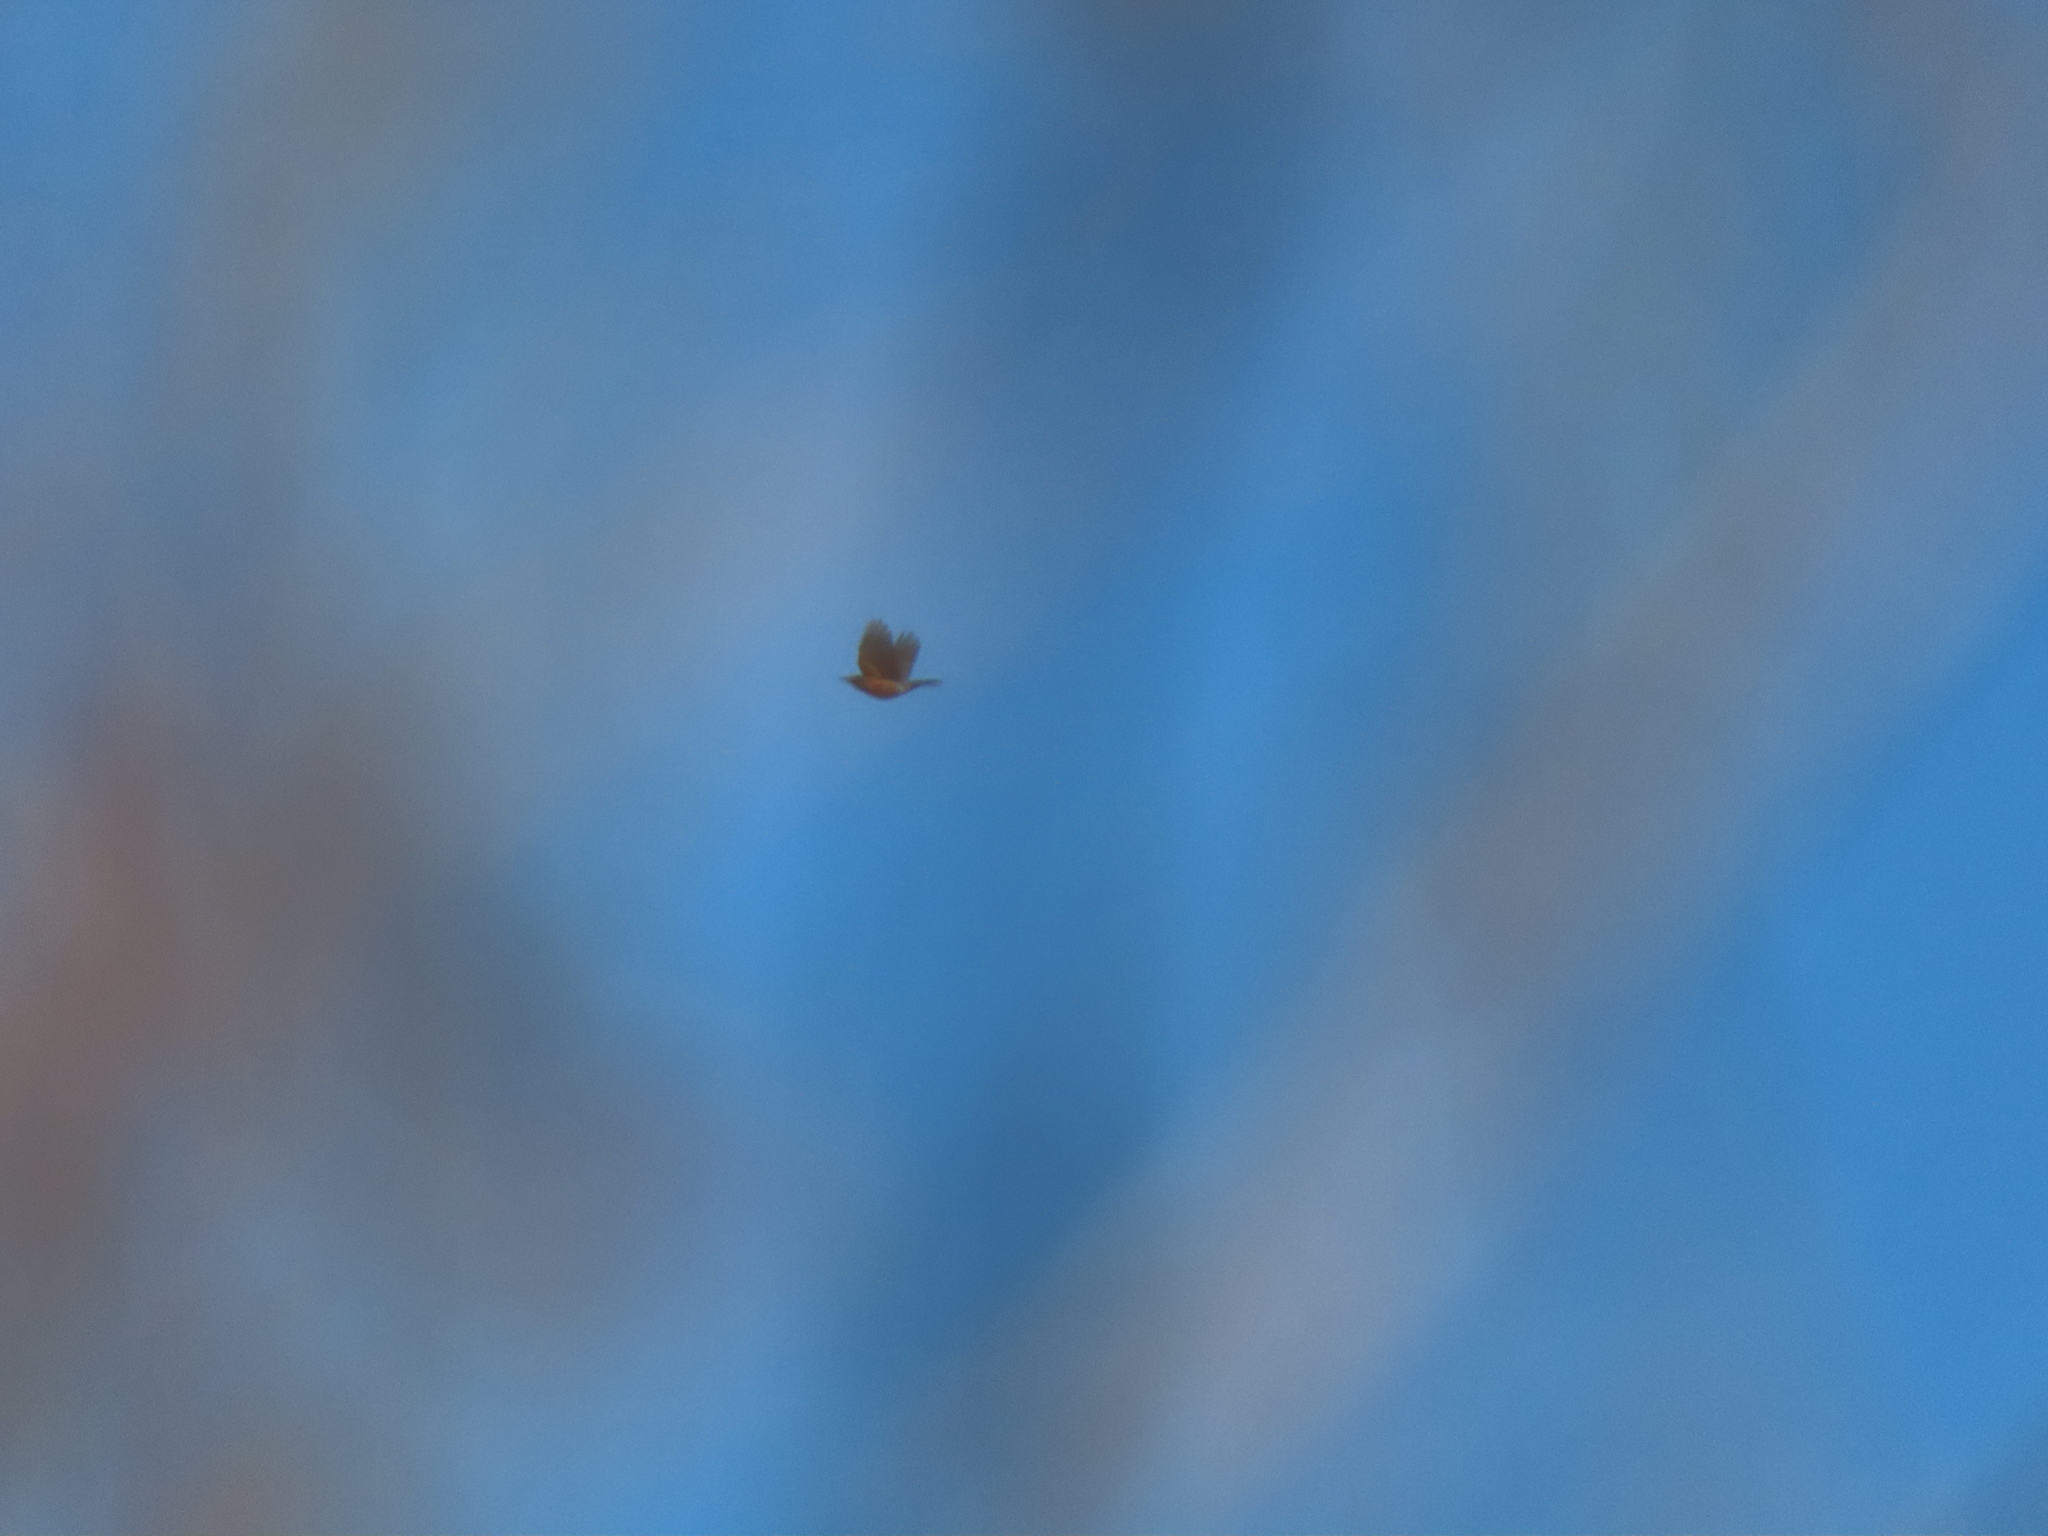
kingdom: Animalia
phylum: Chordata
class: Aves
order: Passeriformes
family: Turdidae
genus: Turdus
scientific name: Turdus migratorius
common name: American robin
